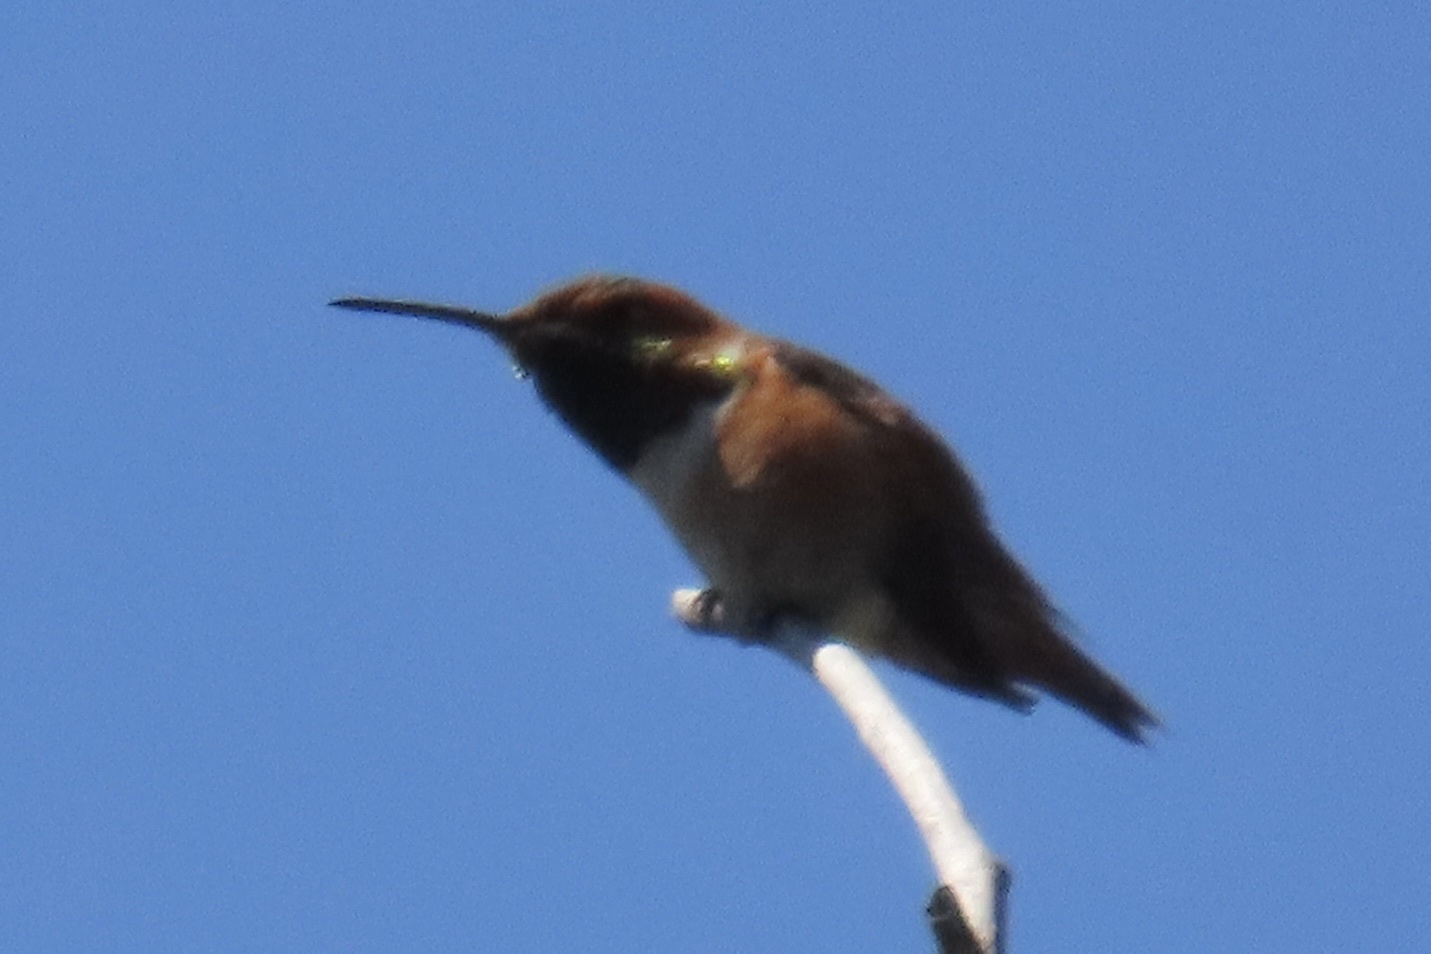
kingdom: Animalia
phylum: Chordata
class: Aves
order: Apodiformes
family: Trochilidae
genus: Selasphorus
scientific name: Selasphorus sasin
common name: Allen's hummingbird
